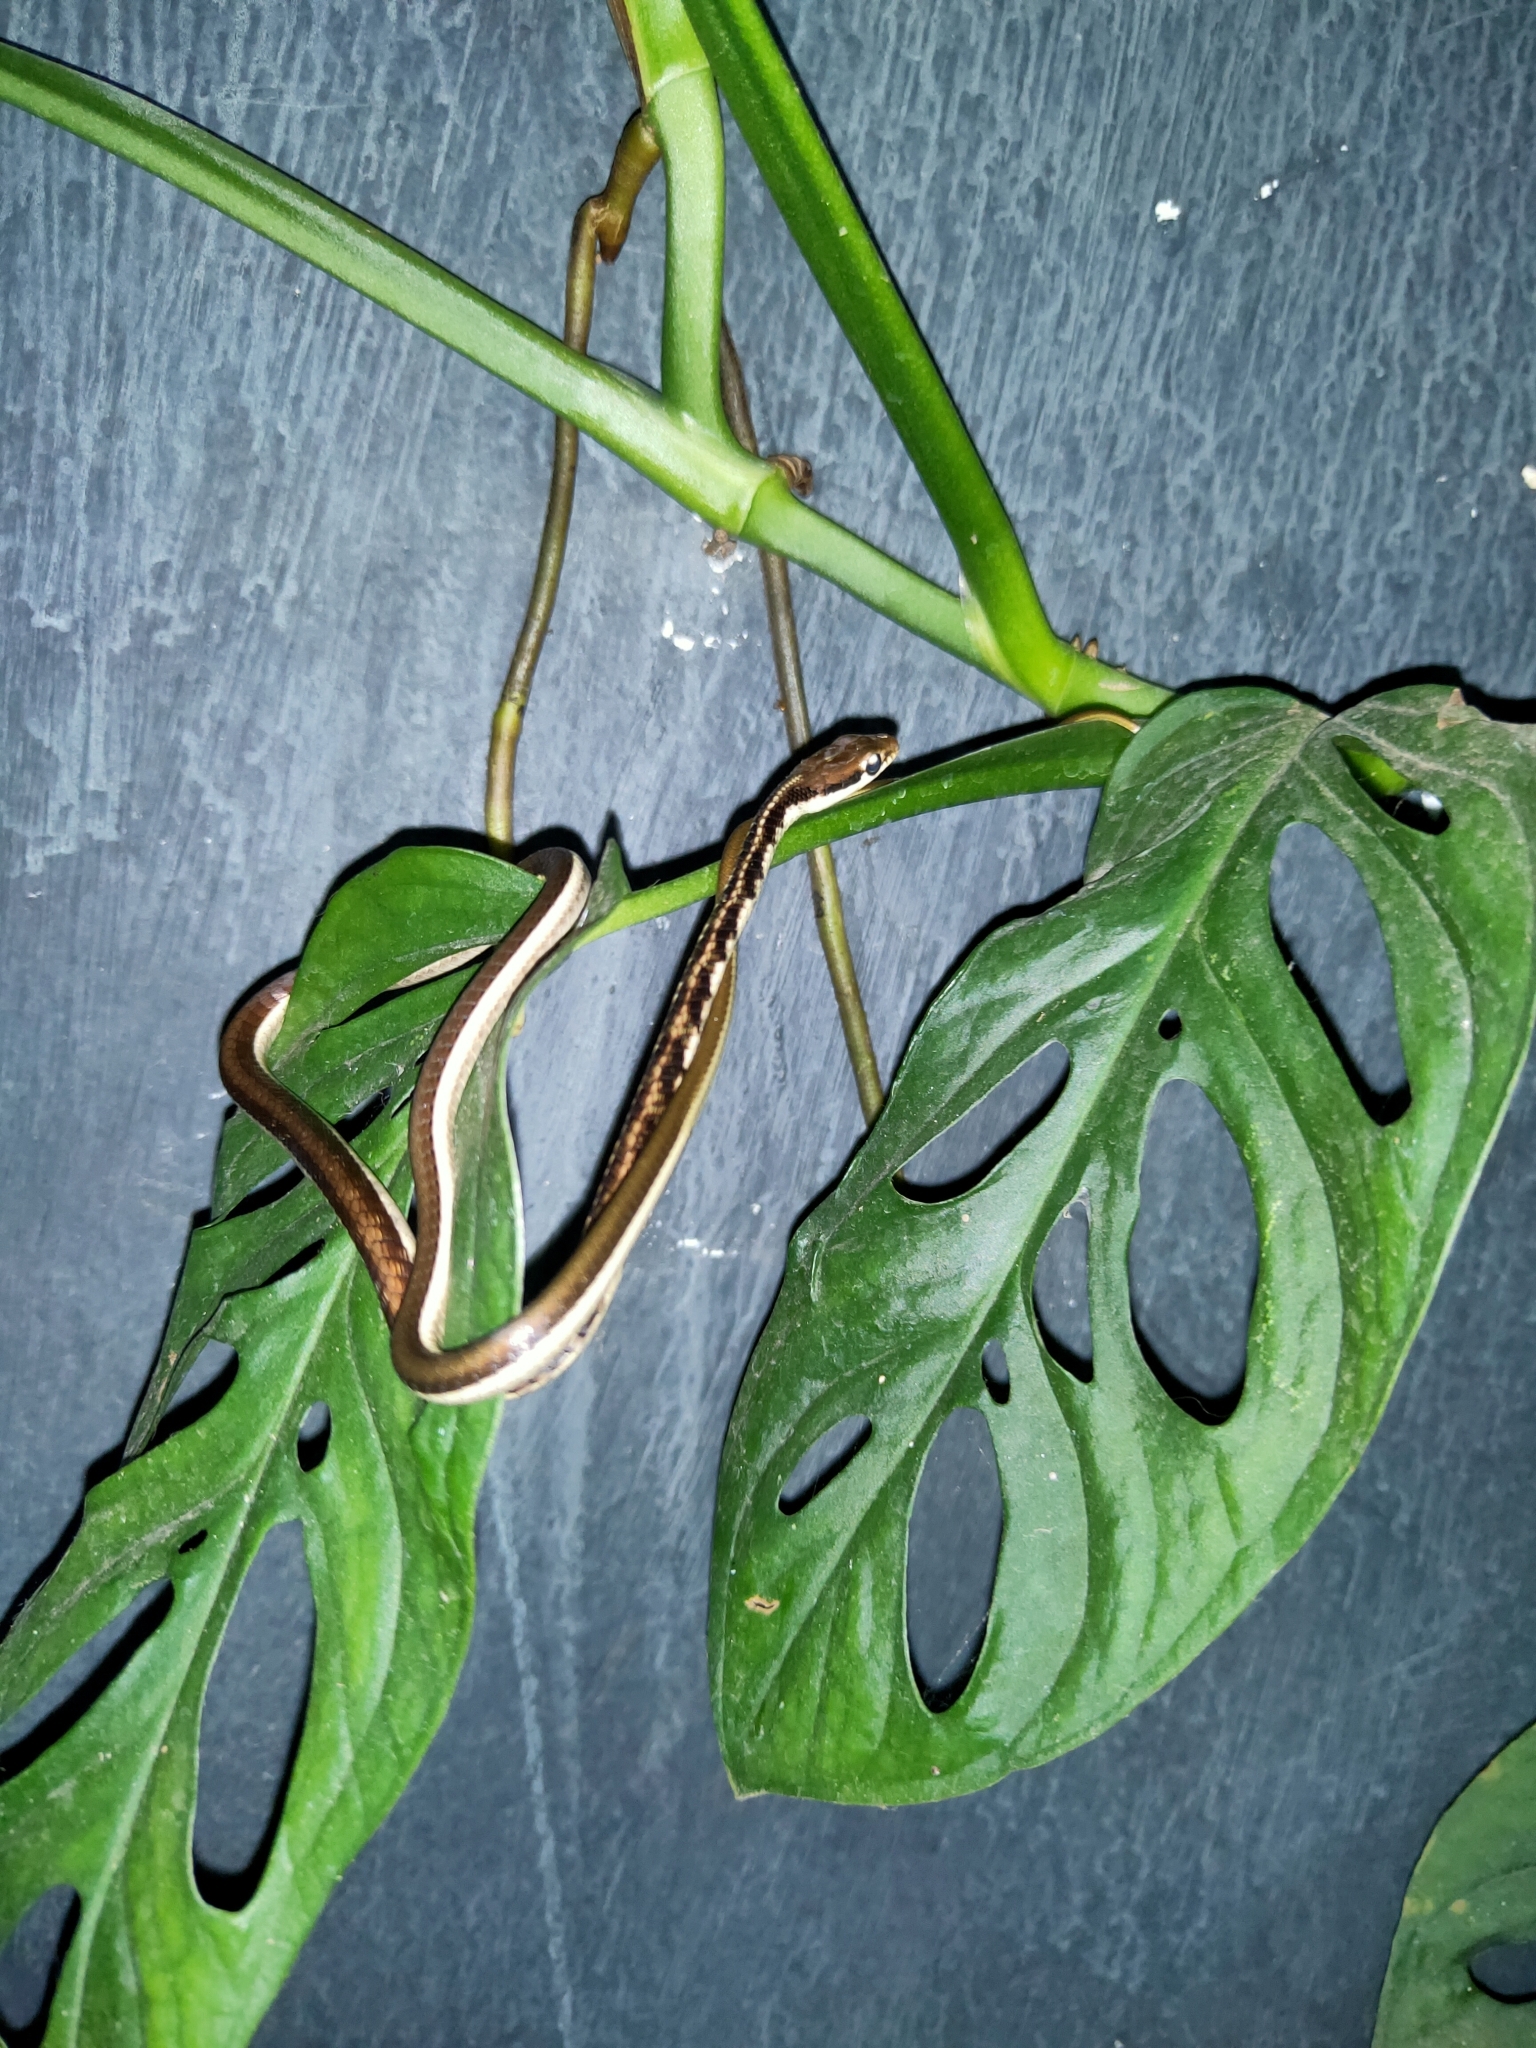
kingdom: Animalia
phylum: Chordata
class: Squamata
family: Colubridae
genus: Dendrelaphis
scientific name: Dendrelaphis tristis
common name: Daudin's bronzeback
